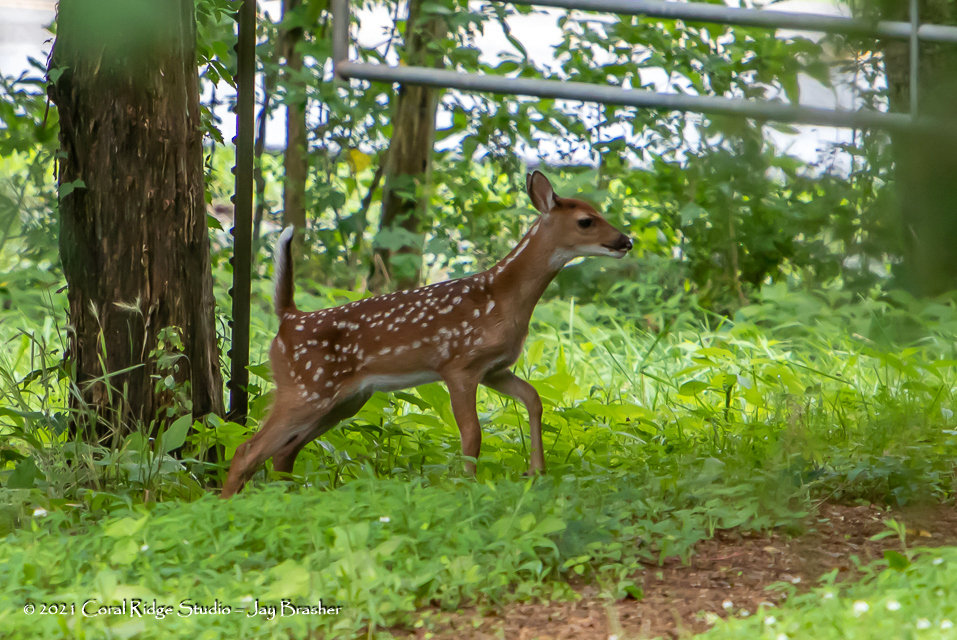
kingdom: Animalia
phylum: Chordata
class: Mammalia
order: Artiodactyla
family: Cervidae
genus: Odocoileus
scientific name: Odocoileus virginianus
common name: White-tailed deer
